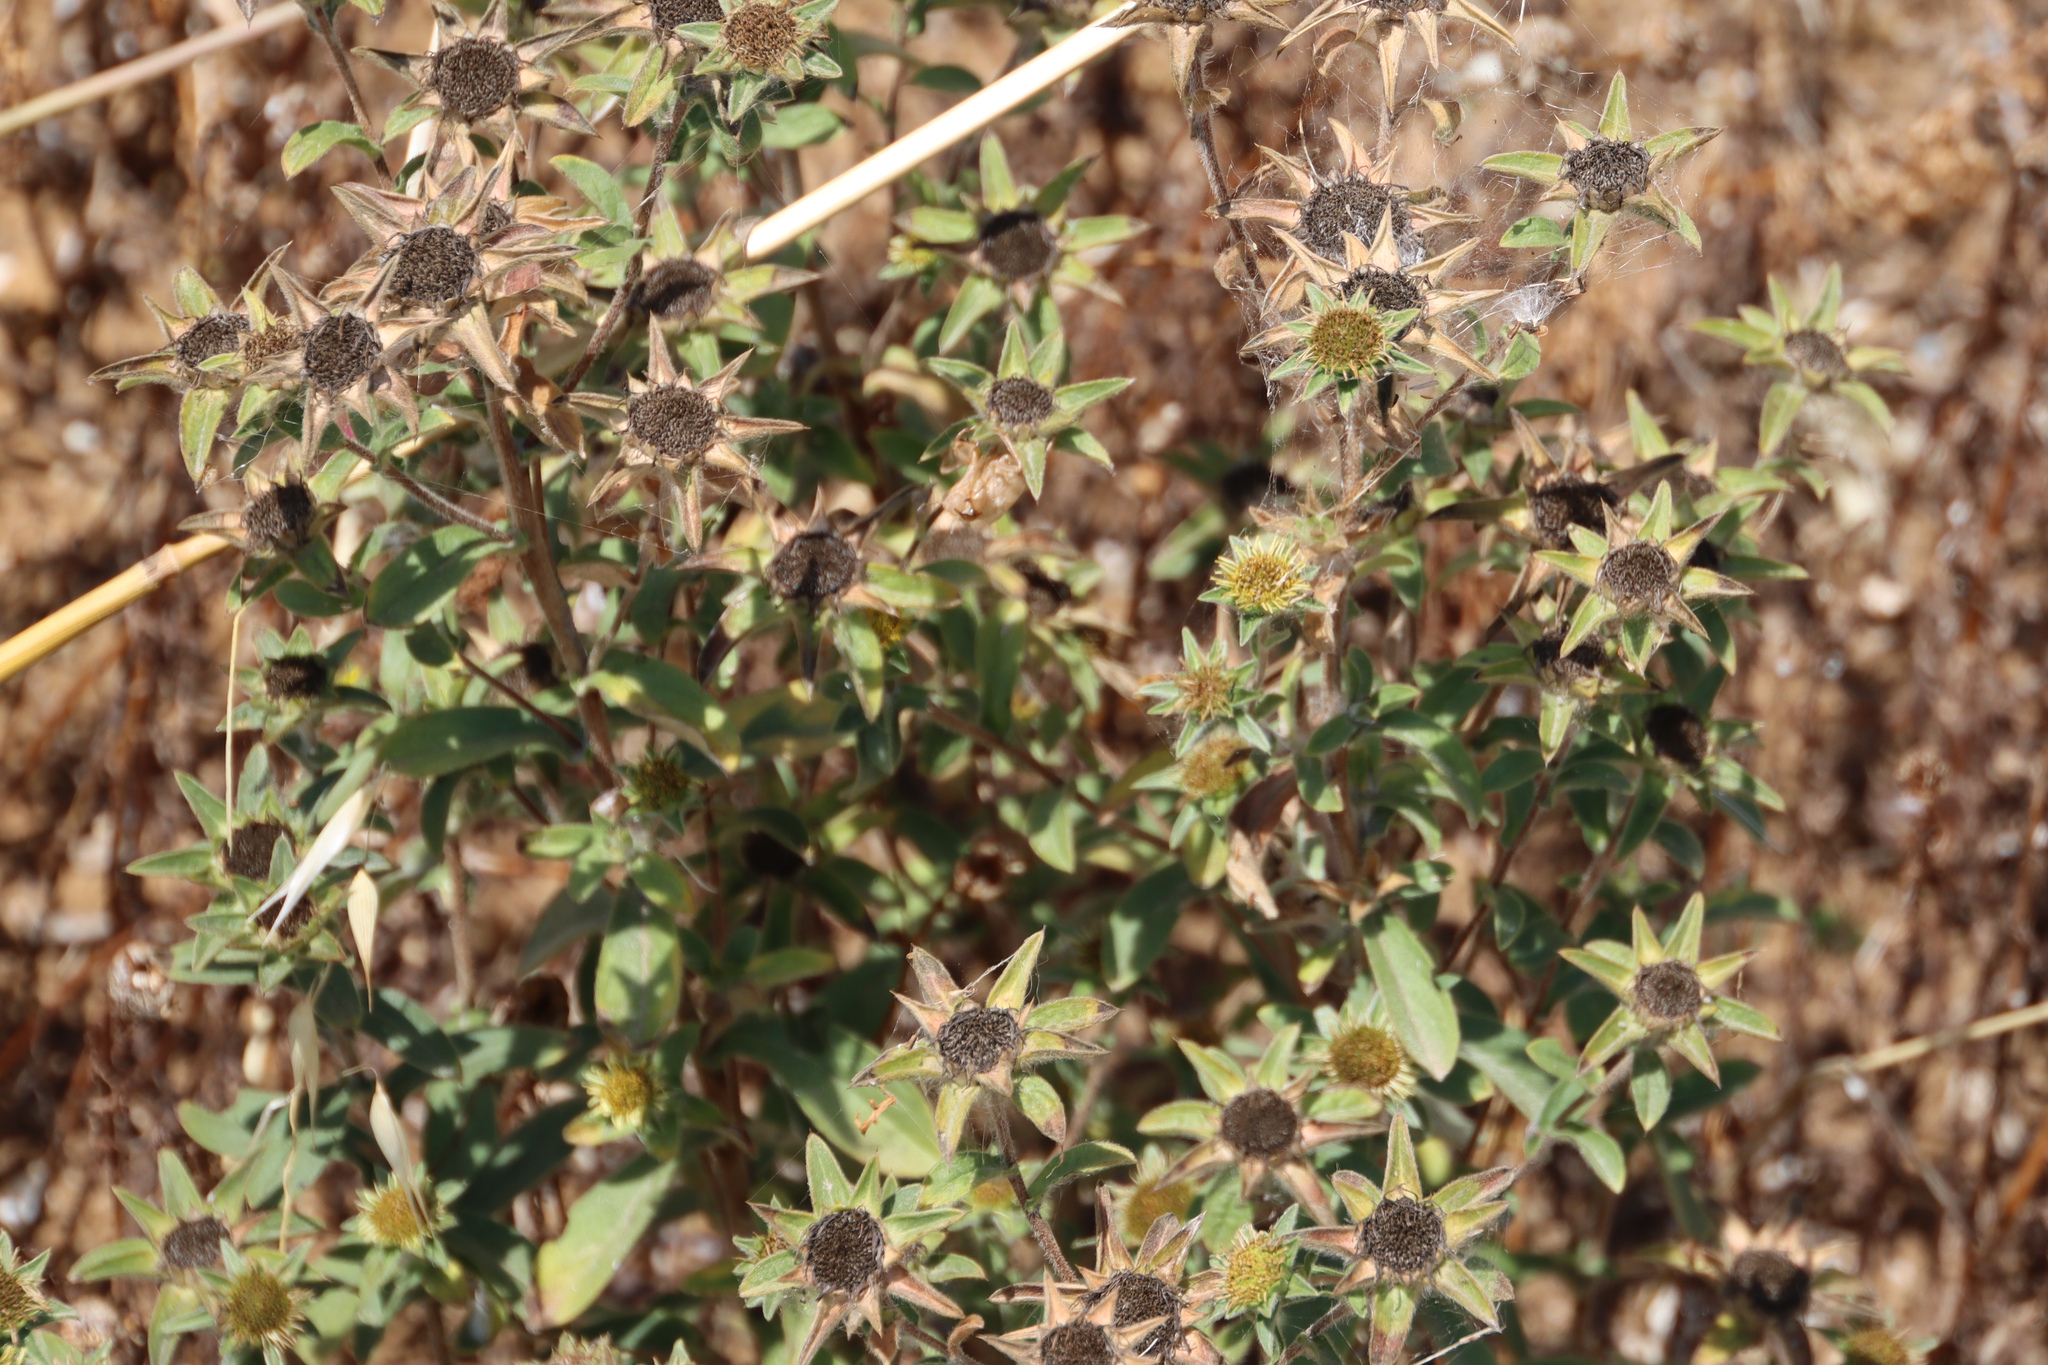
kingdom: Plantae
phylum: Tracheophyta
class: Magnoliopsida
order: Asterales
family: Asteraceae
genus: Pallenis
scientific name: Pallenis spinosa
